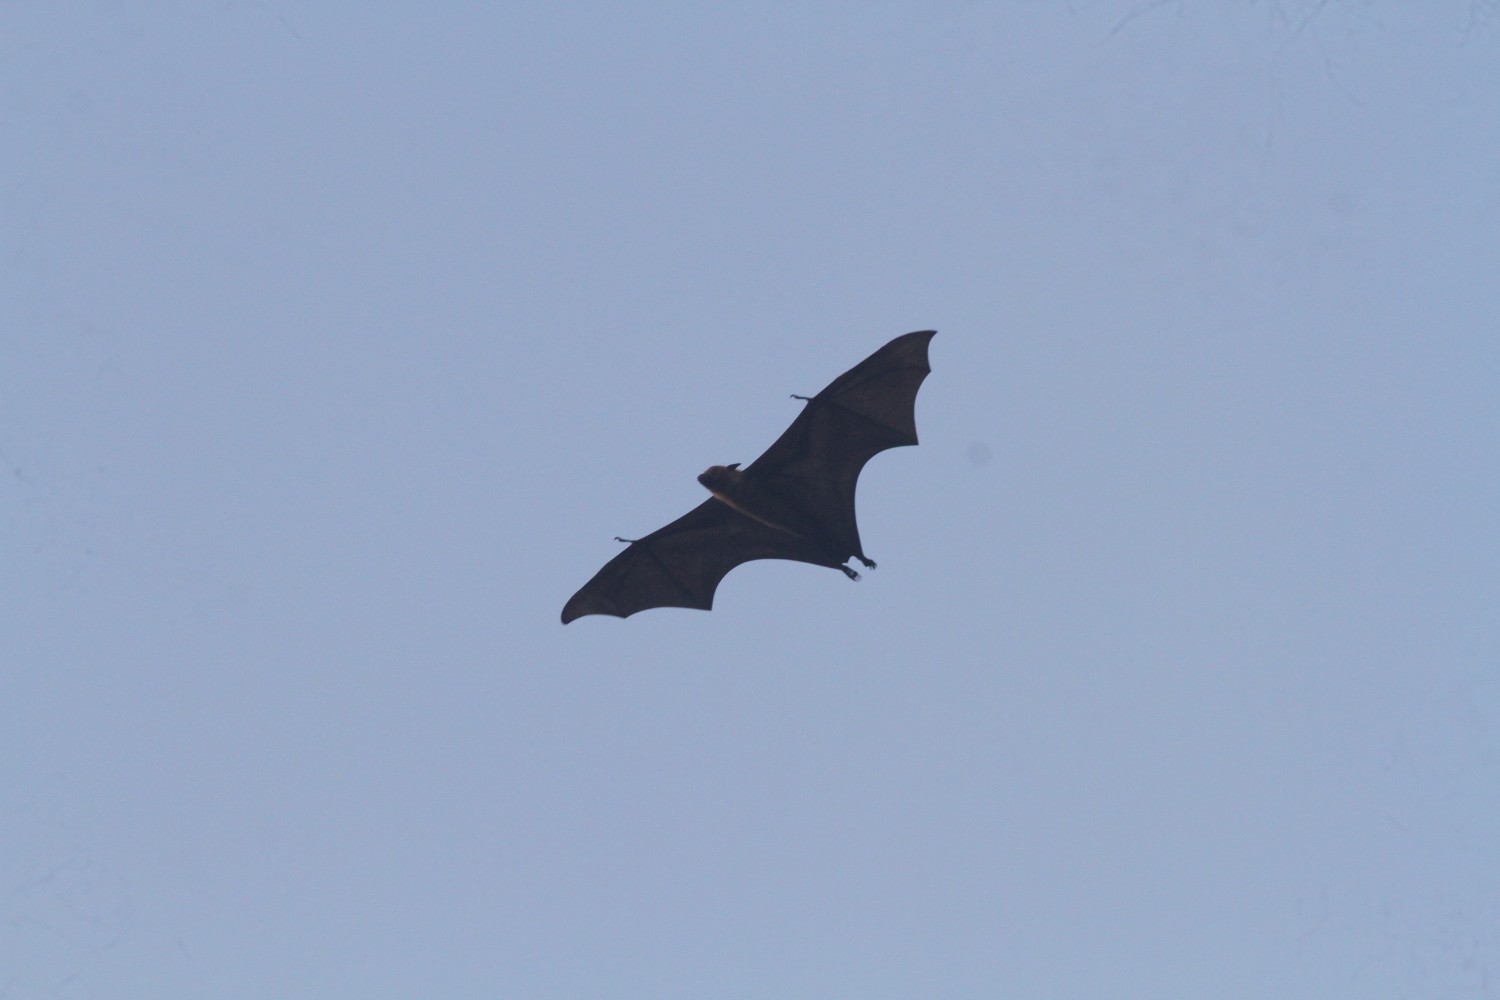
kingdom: Animalia
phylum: Chordata
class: Mammalia
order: Chiroptera
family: Pteropodidae
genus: Pteropus
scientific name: Pteropus vampyrus
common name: Large flying fox
